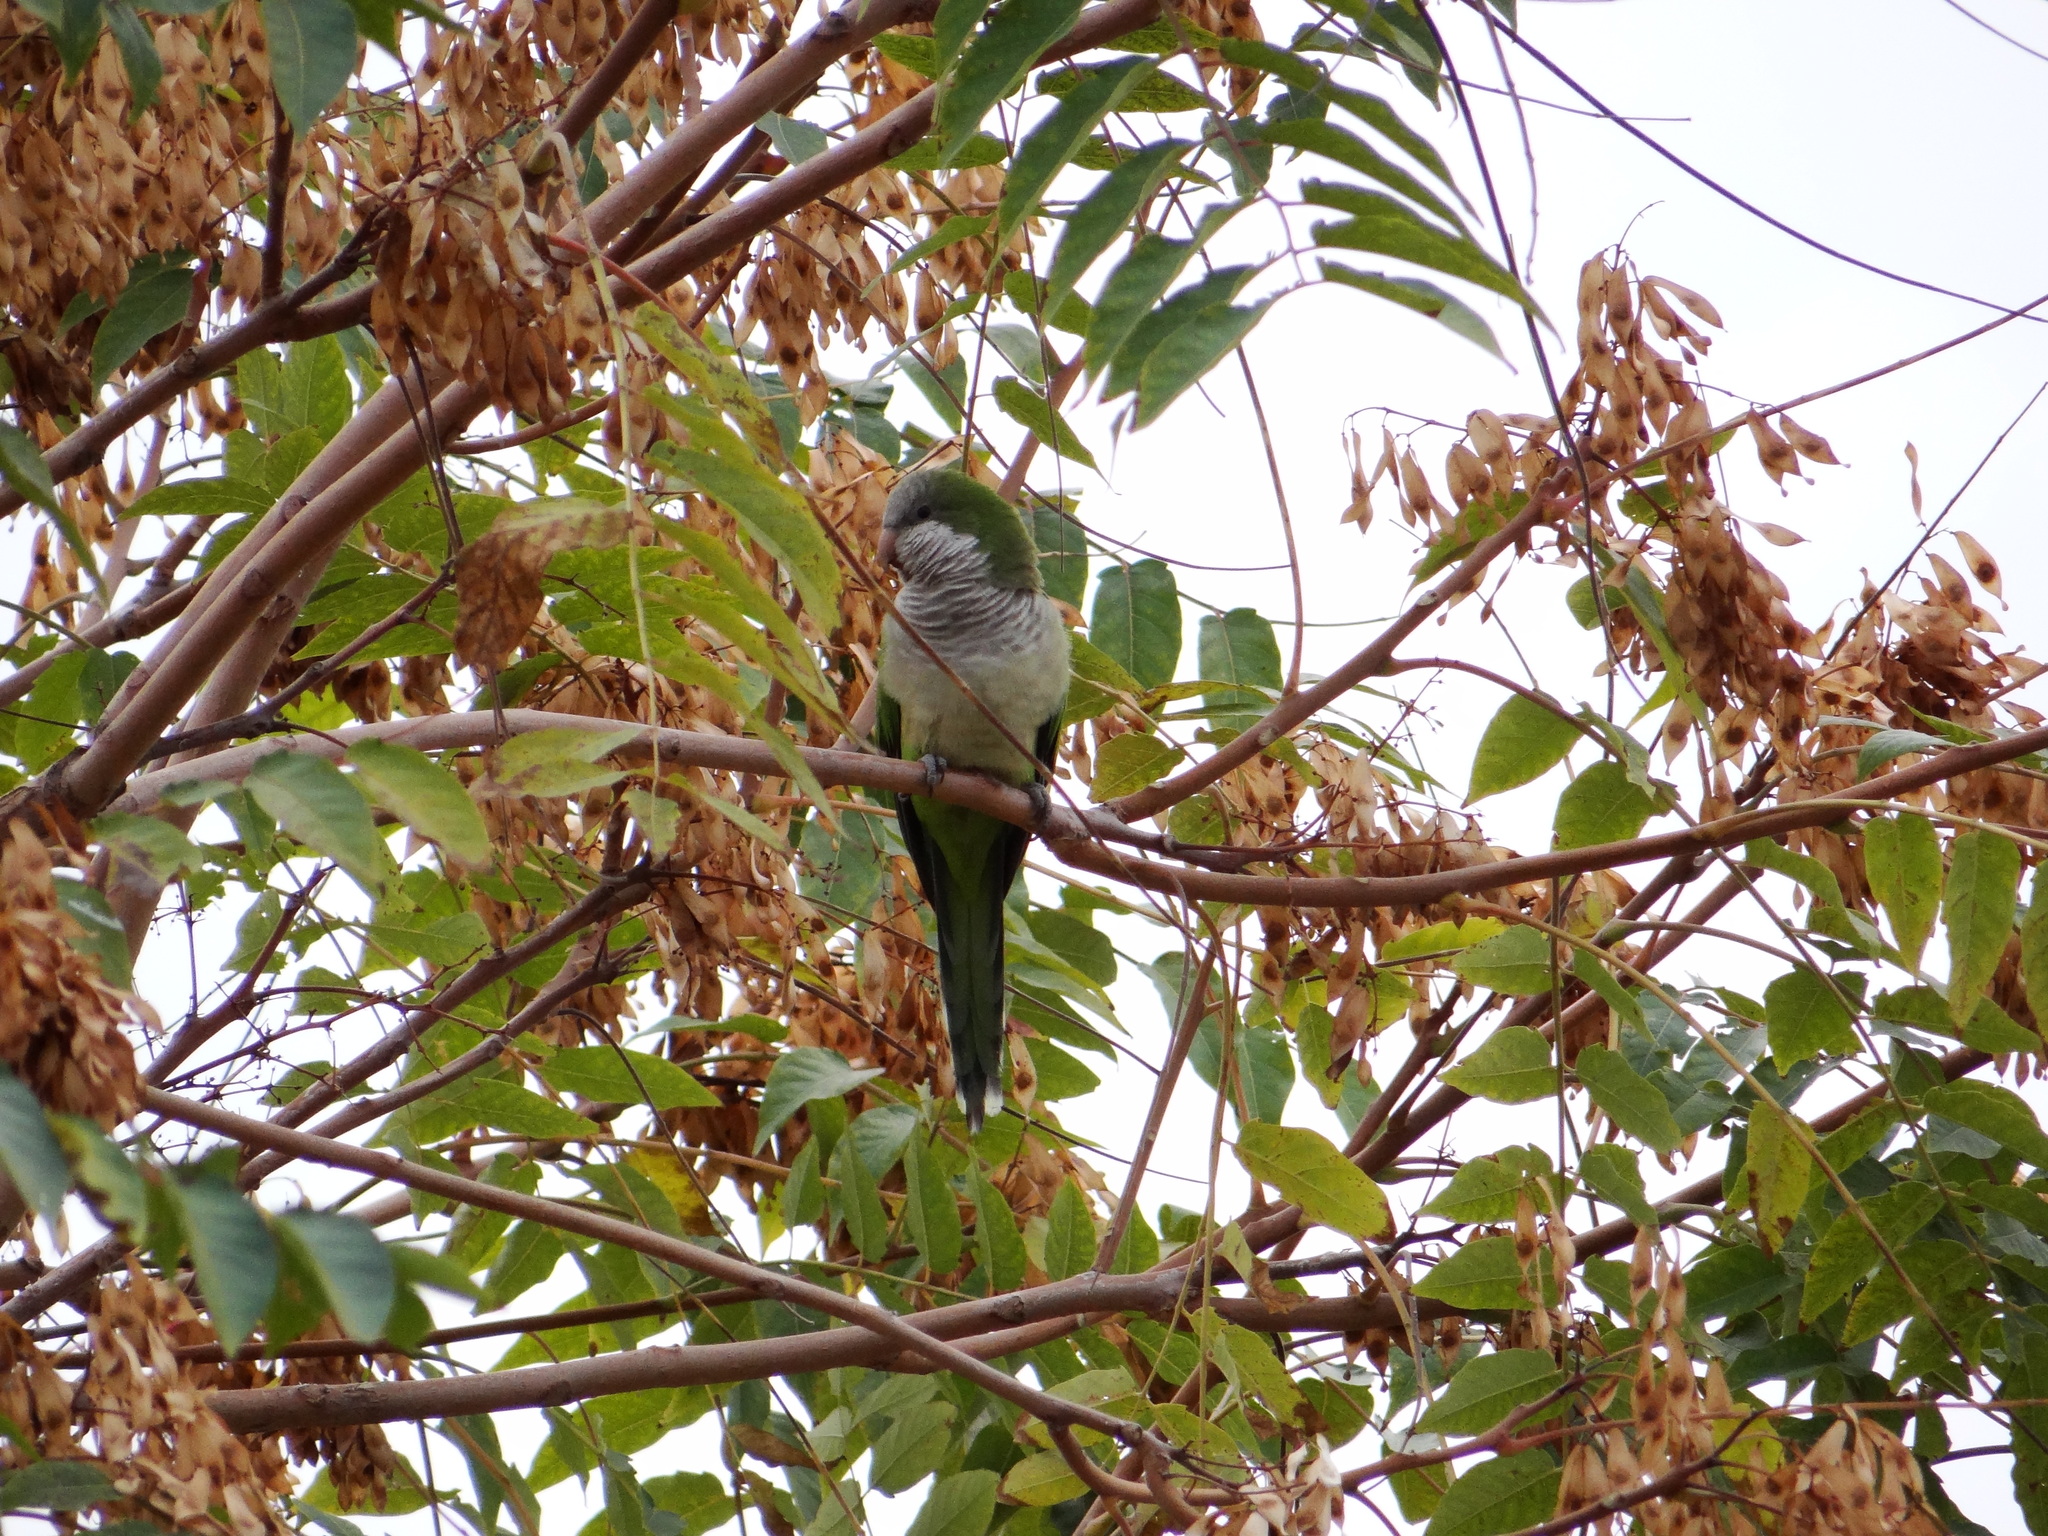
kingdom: Animalia
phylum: Chordata
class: Aves
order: Psittaciformes
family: Psittacidae
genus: Myiopsitta
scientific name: Myiopsitta monachus
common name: Monk parakeet
